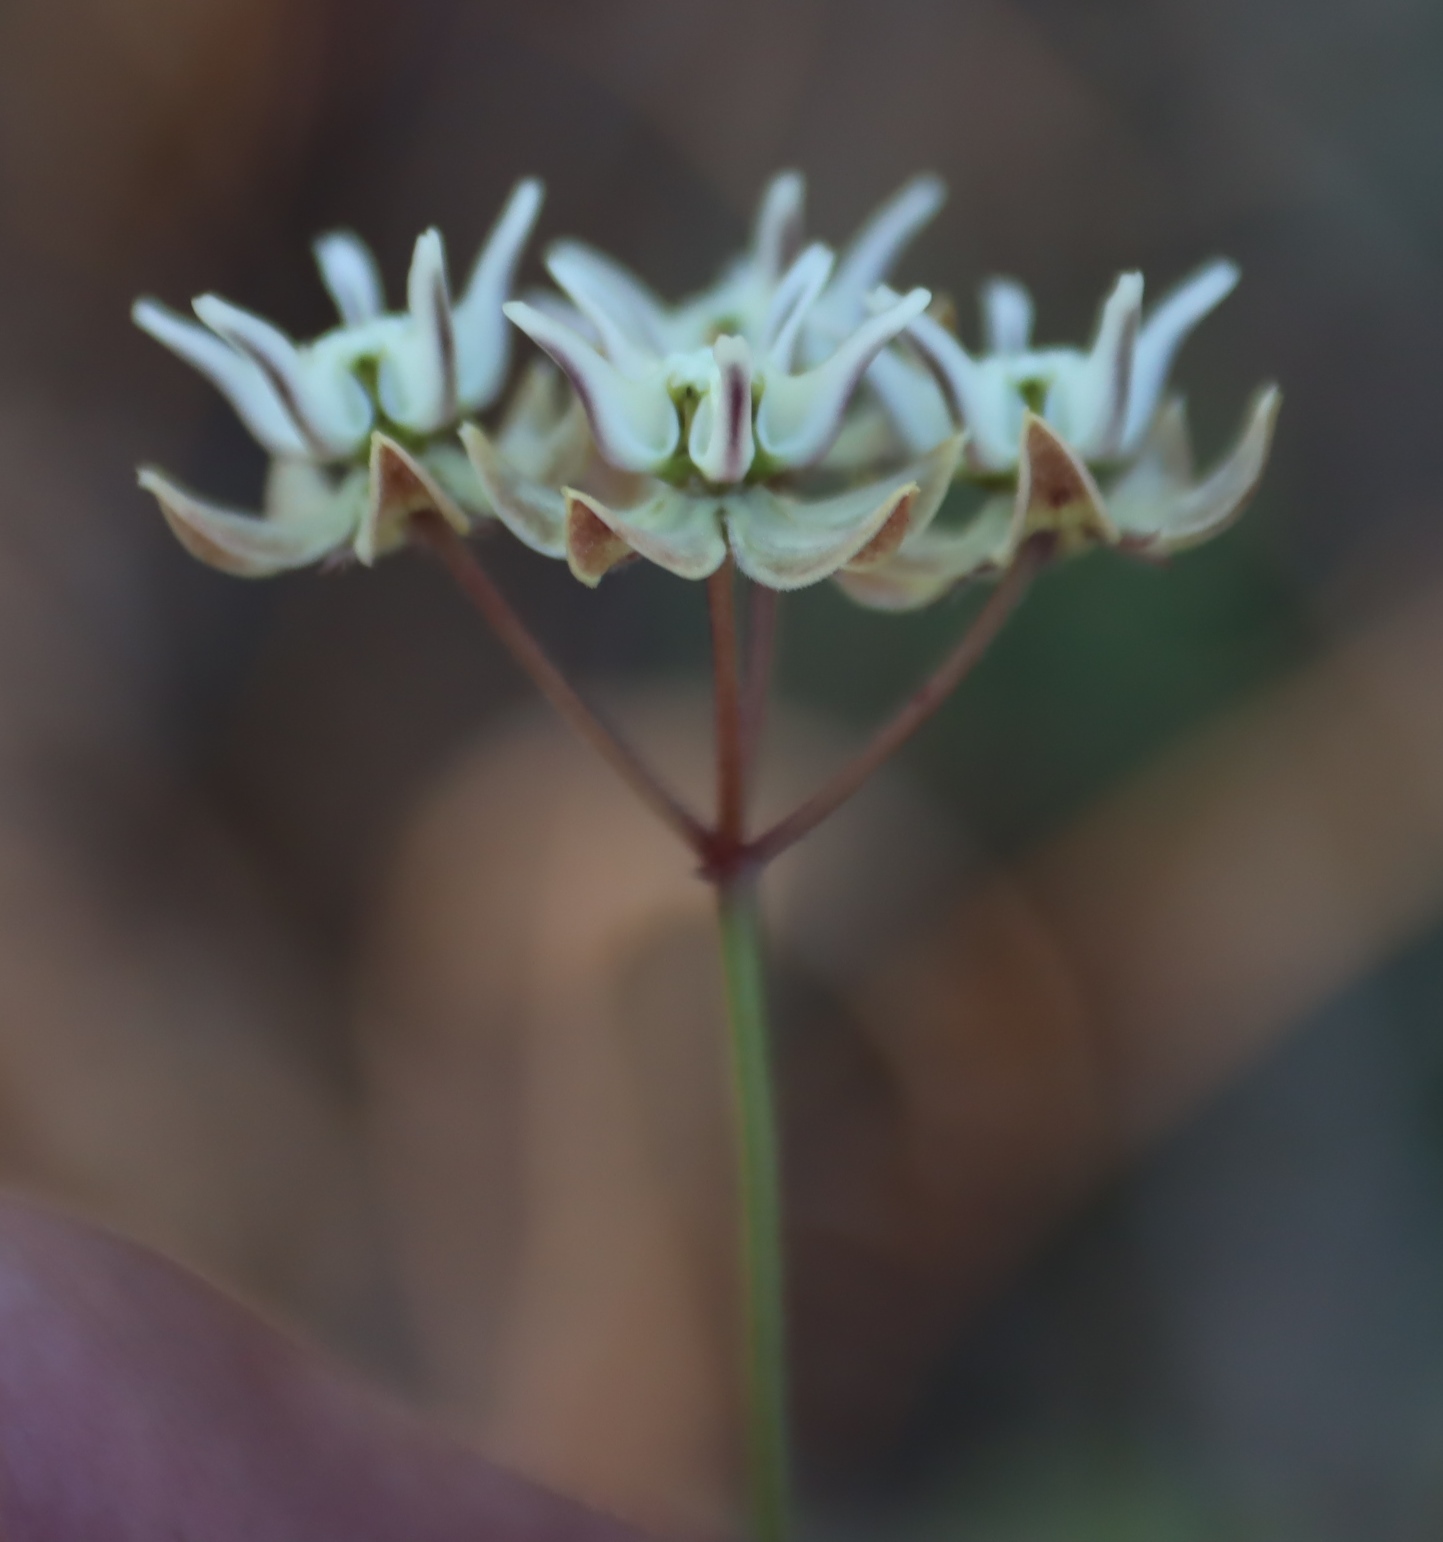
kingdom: Plantae
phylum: Tracheophyta
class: Magnoliopsida
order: Gentianales
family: Apocynaceae
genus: Asclepias
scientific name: Asclepias aurea
